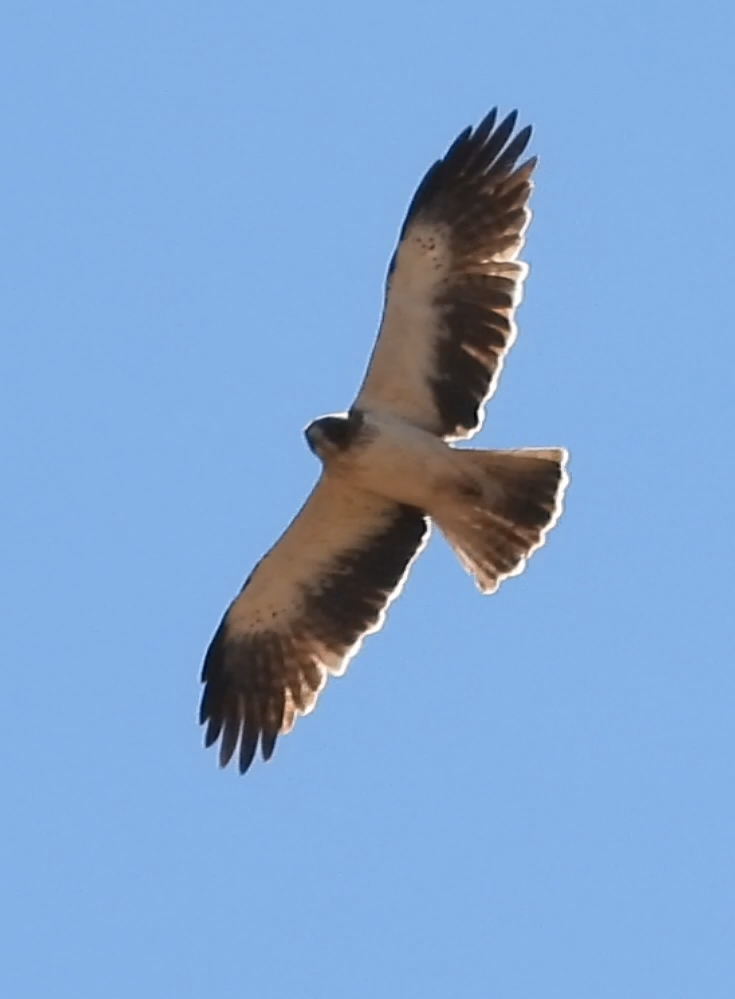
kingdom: Animalia
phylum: Chordata
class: Aves
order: Accipitriformes
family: Accipitridae
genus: Hieraaetus
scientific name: Hieraaetus pennatus
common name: Booted eagle
